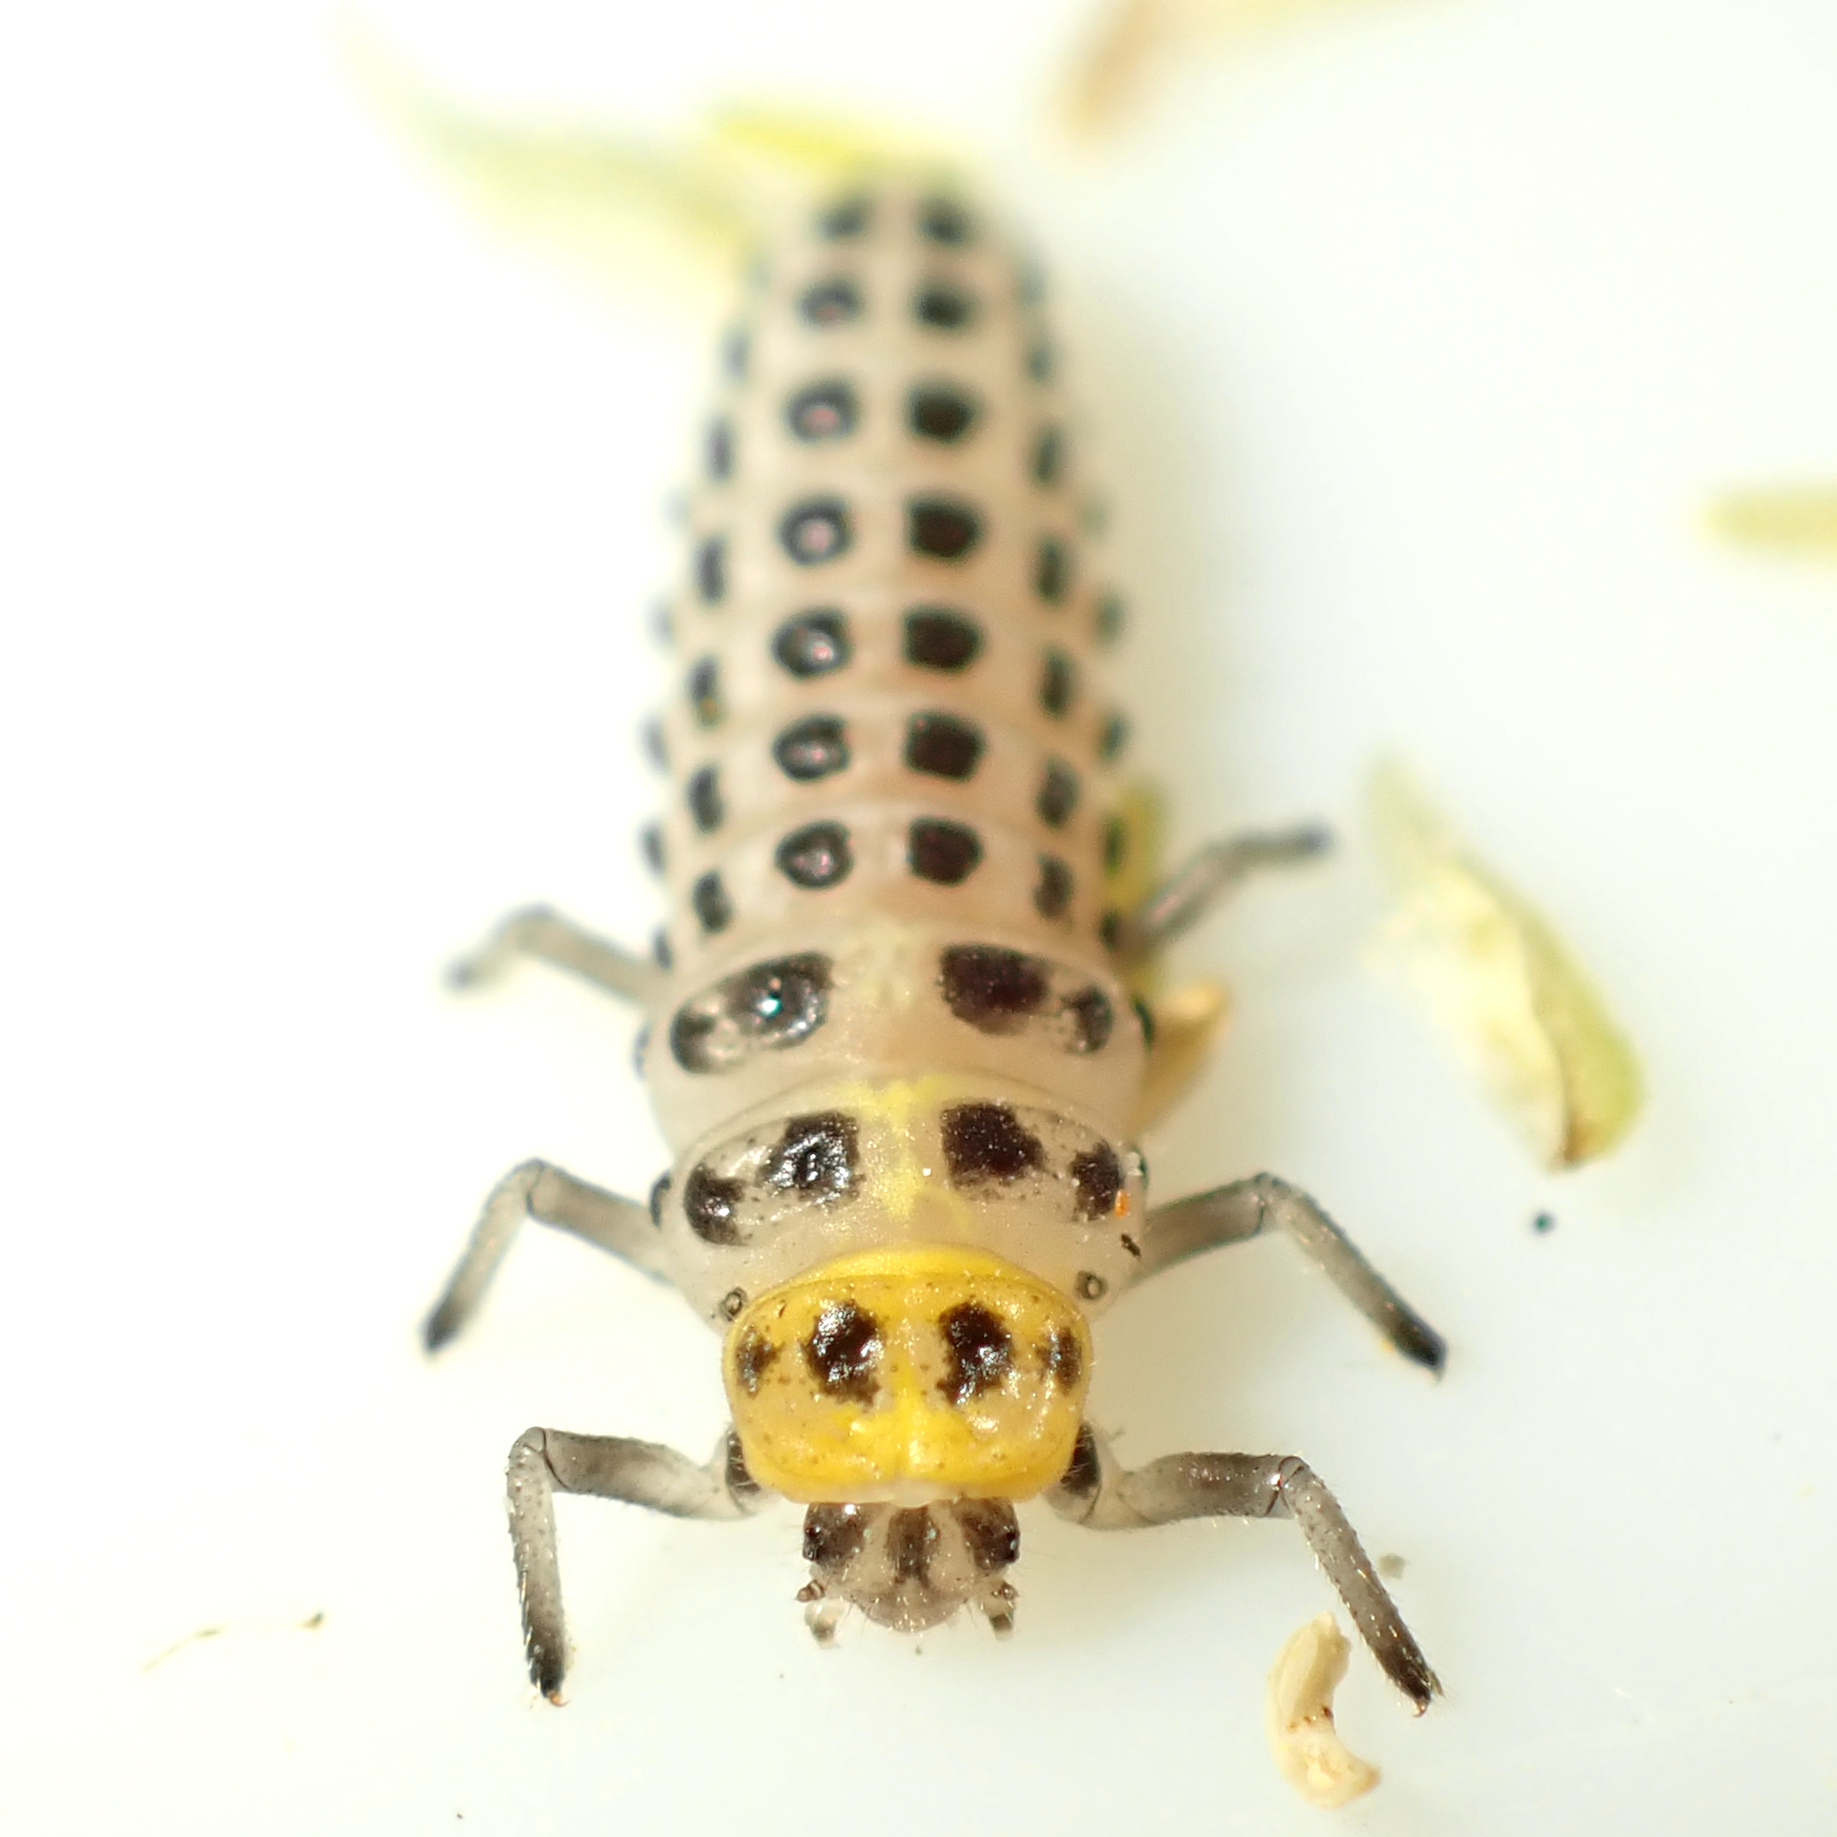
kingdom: Animalia
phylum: Arthropoda
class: Insecta
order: Coleoptera
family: Coccinellidae
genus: Illeis
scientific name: Illeis galbula
